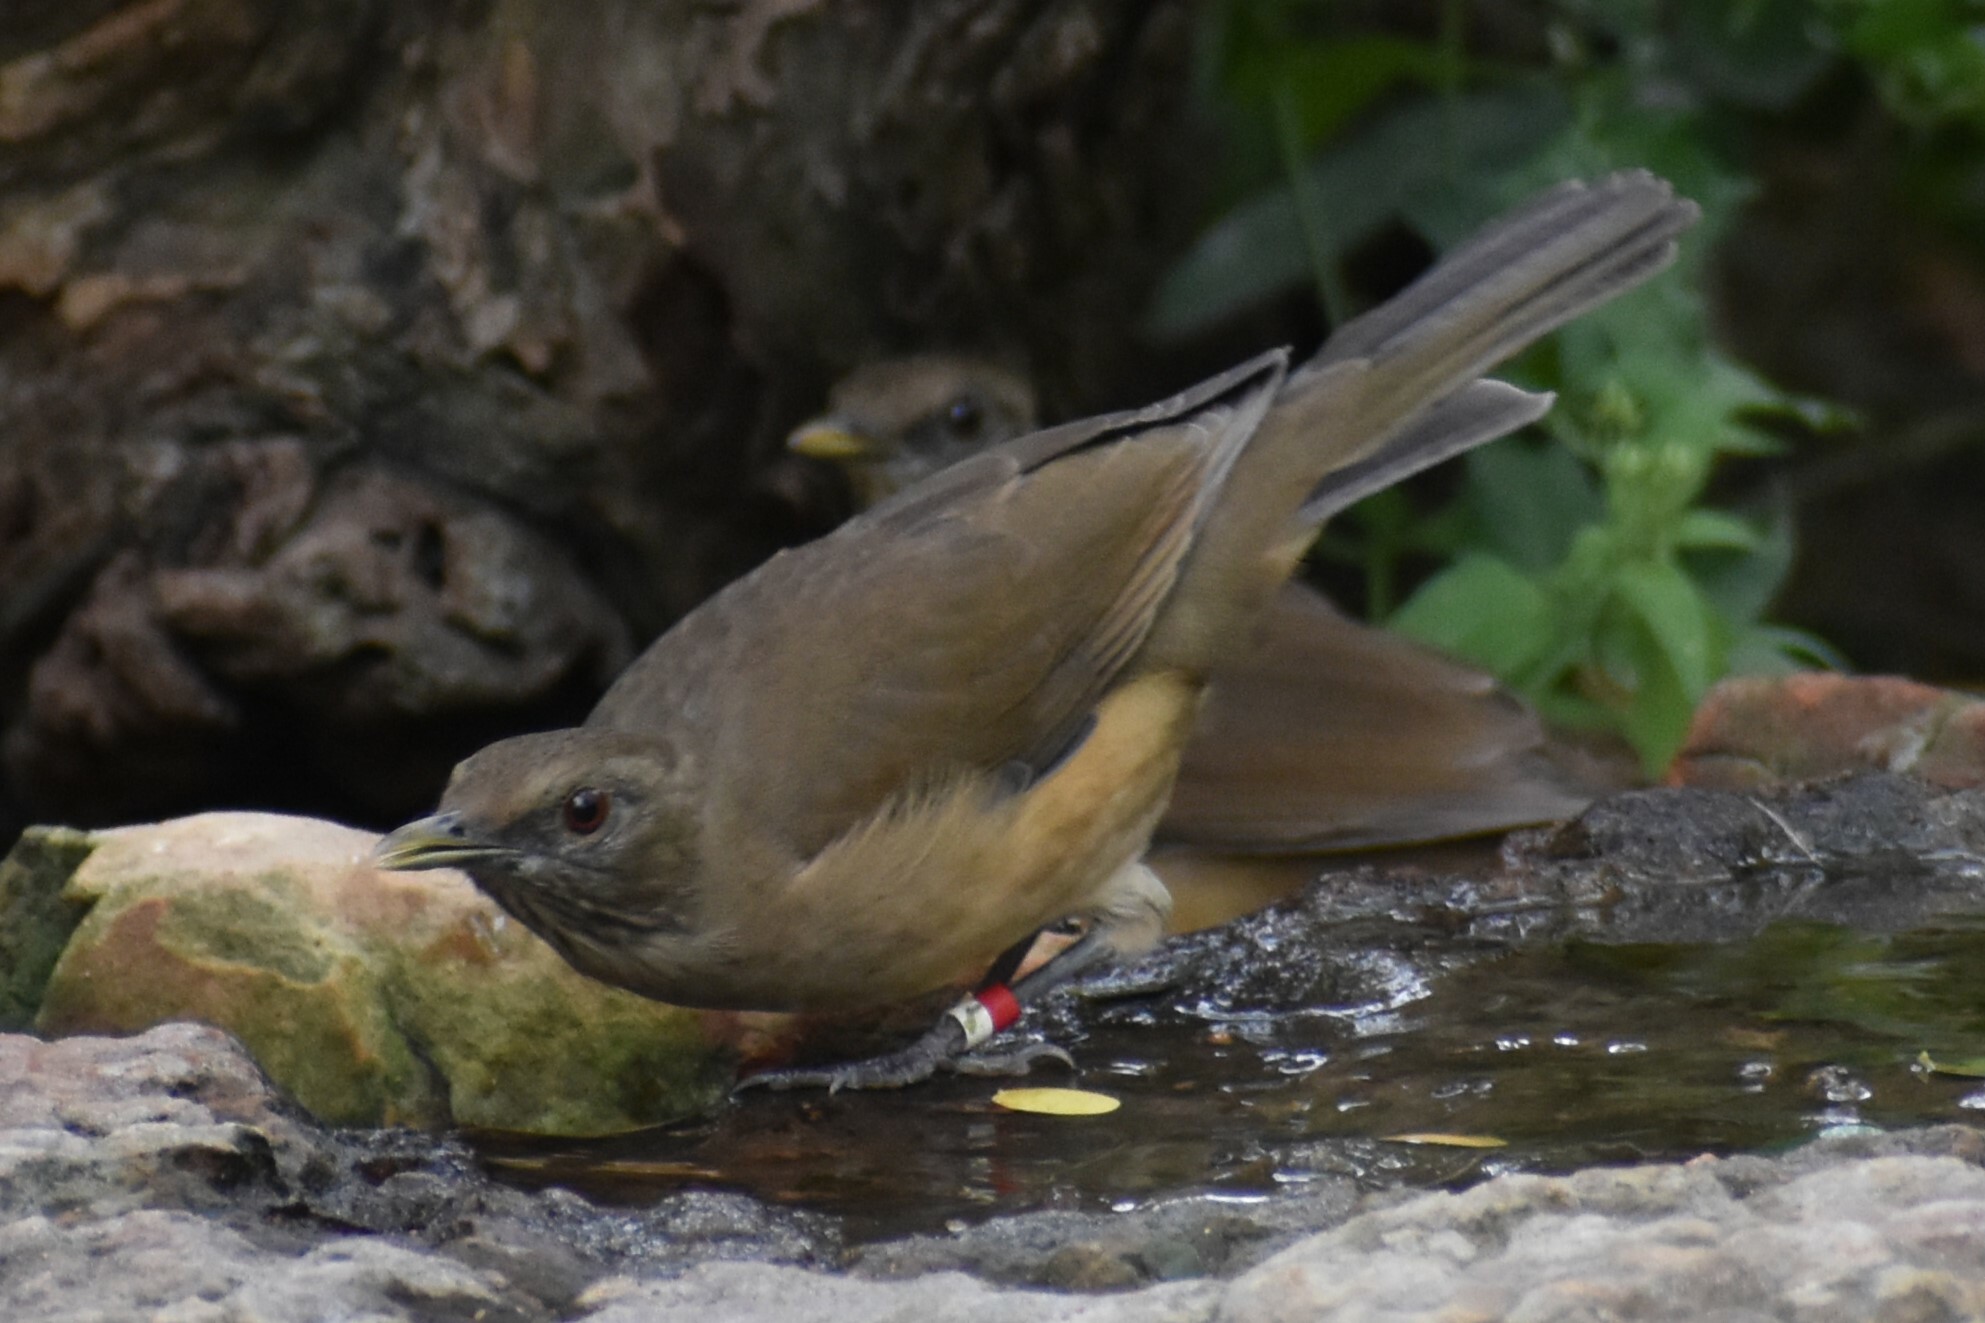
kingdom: Animalia
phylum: Chordata
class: Aves
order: Passeriformes
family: Turdidae
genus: Turdus
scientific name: Turdus grayi
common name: Clay-colored thrush
